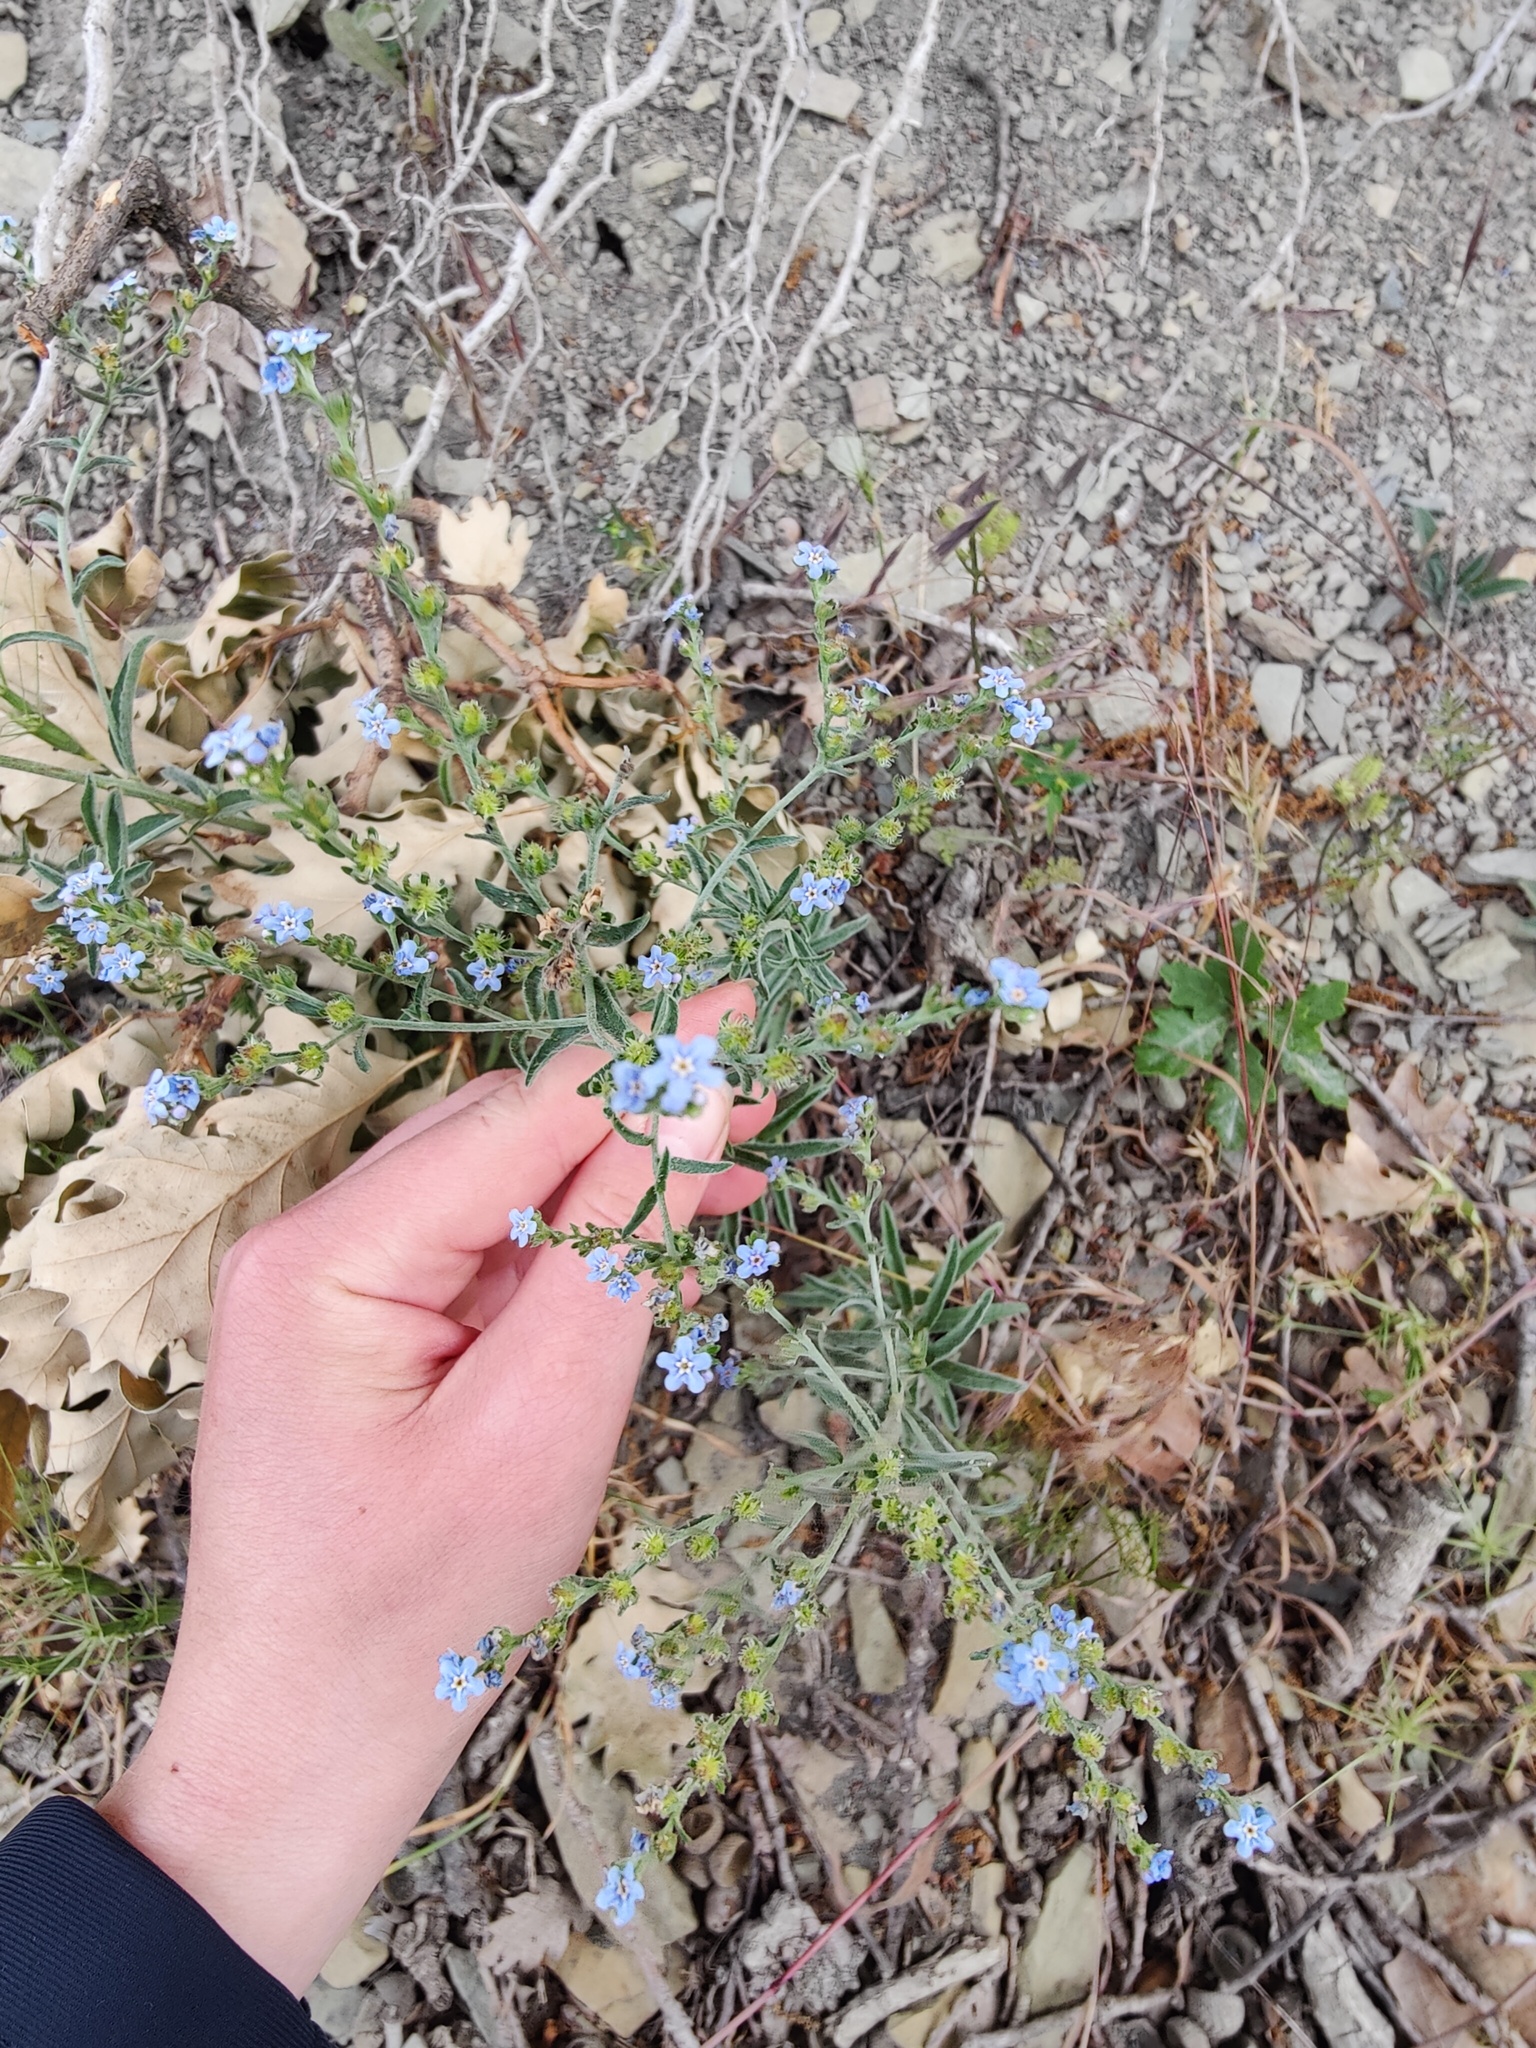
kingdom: Plantae
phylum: Tracheophyta
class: Magnoliopsida
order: Boraginales
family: Boraginaceae
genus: Lappula
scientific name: Lappula barbata
